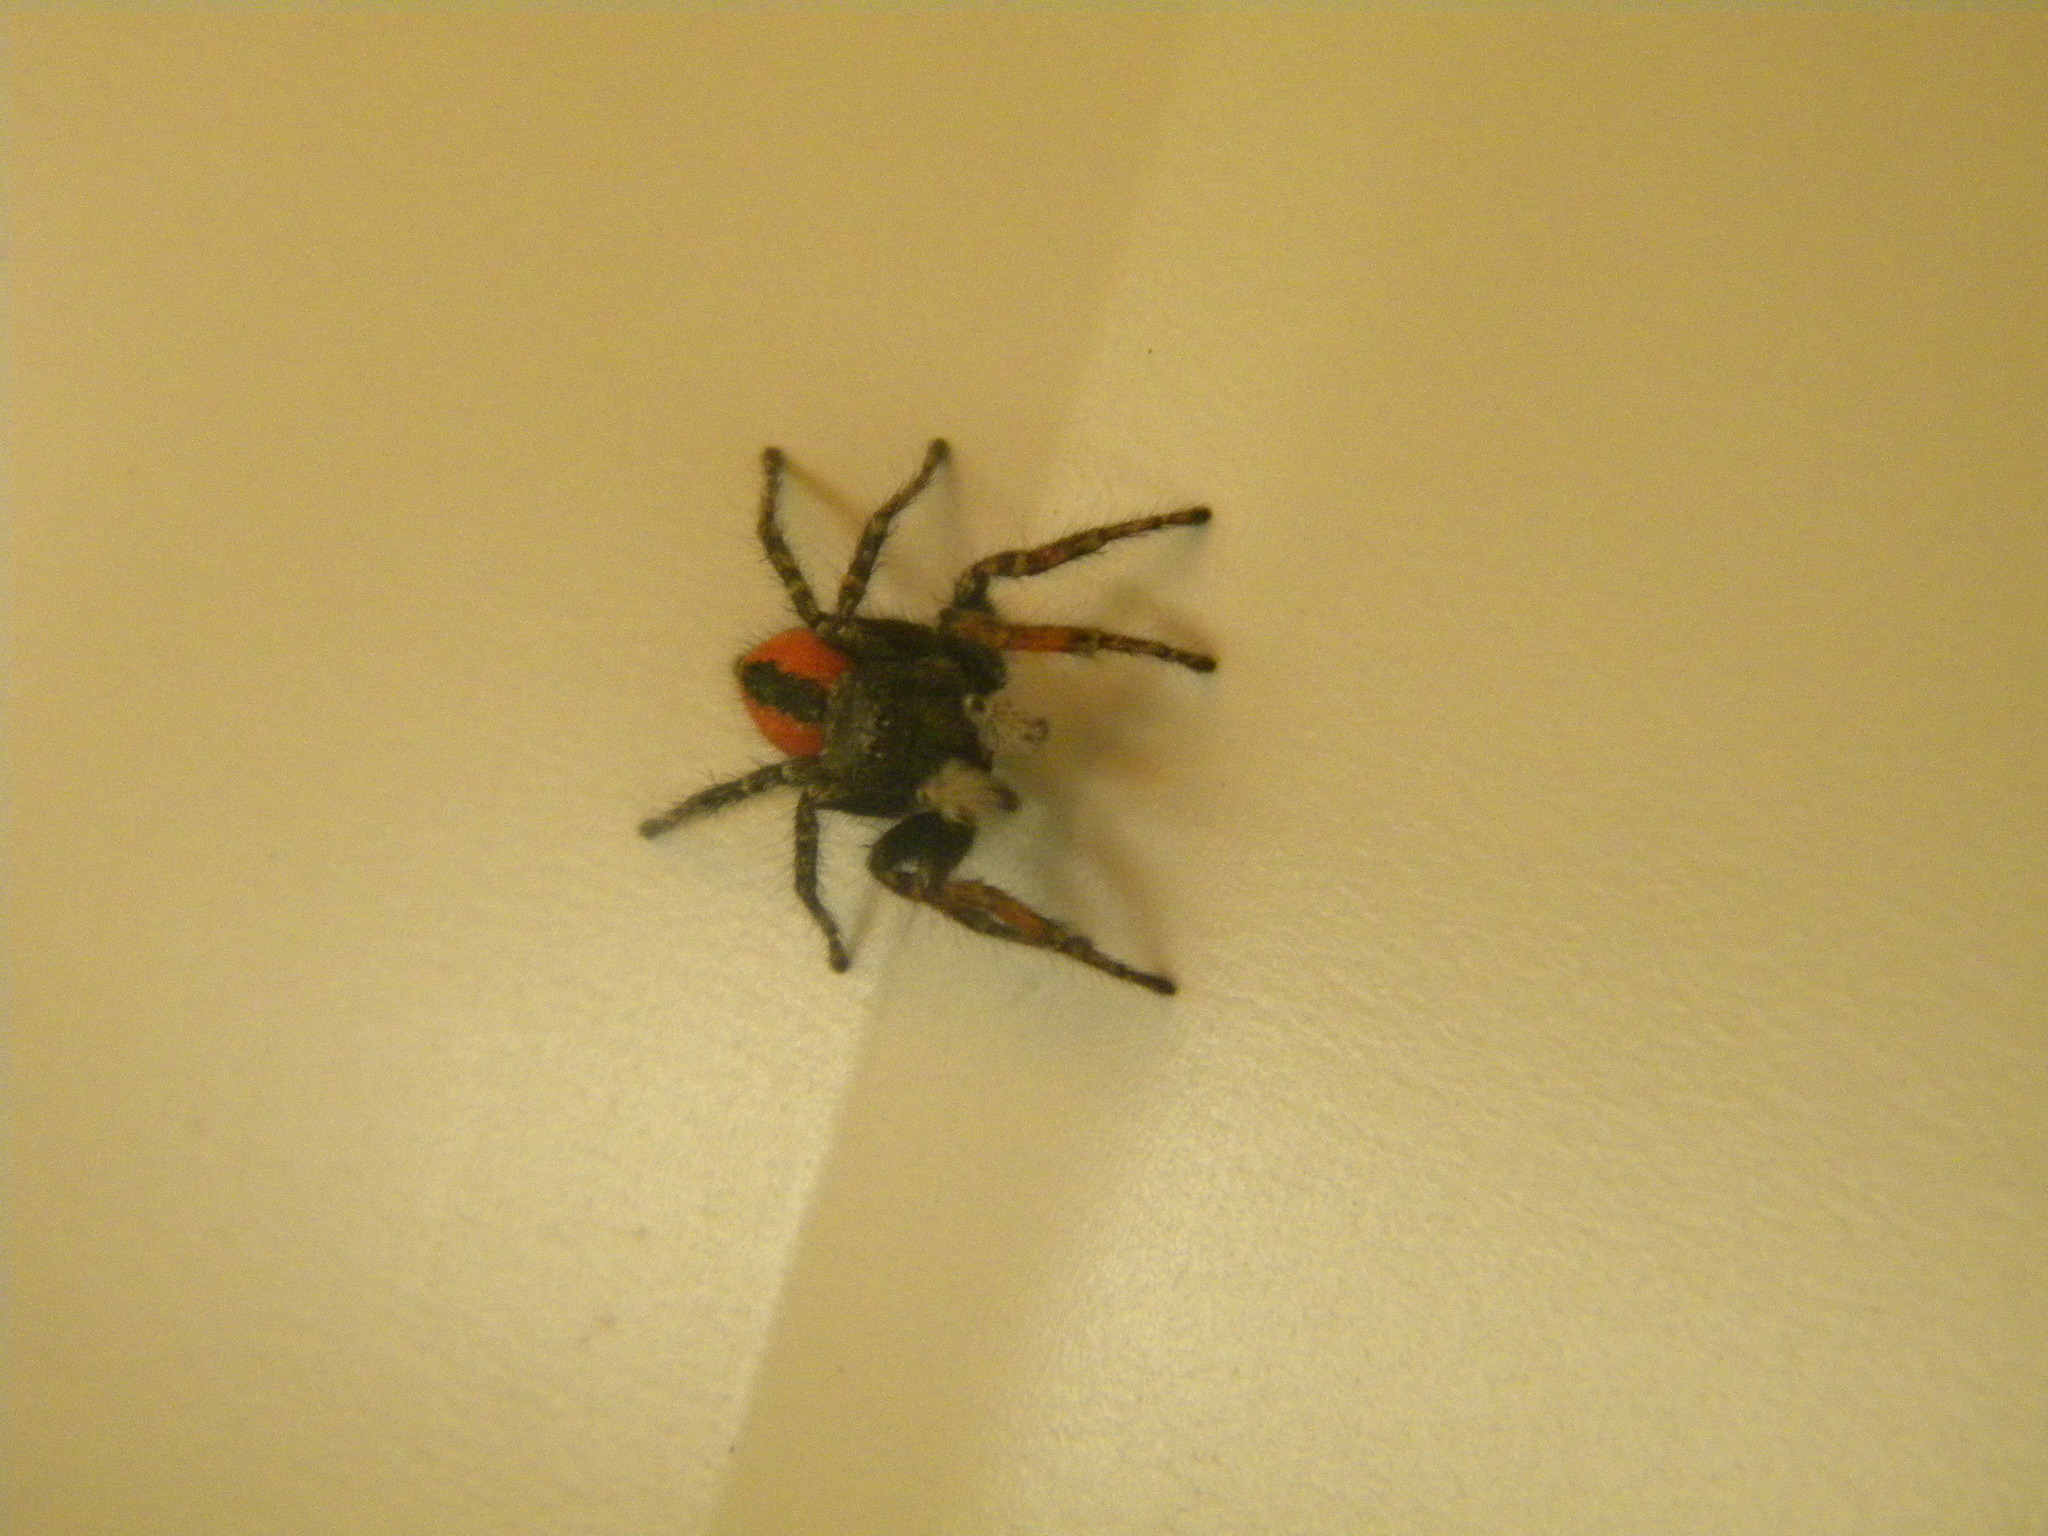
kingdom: Animalia
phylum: Arthropoda
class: Arachnida
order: Araneae
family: Salticidae
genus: Philaeus
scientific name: Philaeus chrysops
